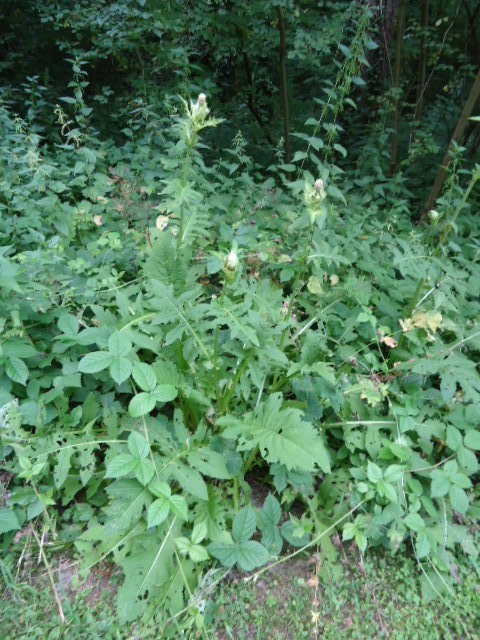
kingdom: Plantae
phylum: Tracheophyta
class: Magnoliopsida
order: Asterales
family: Asteraceae
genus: Cirsium
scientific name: Cirsium oleraceum
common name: Cabbage thistle
